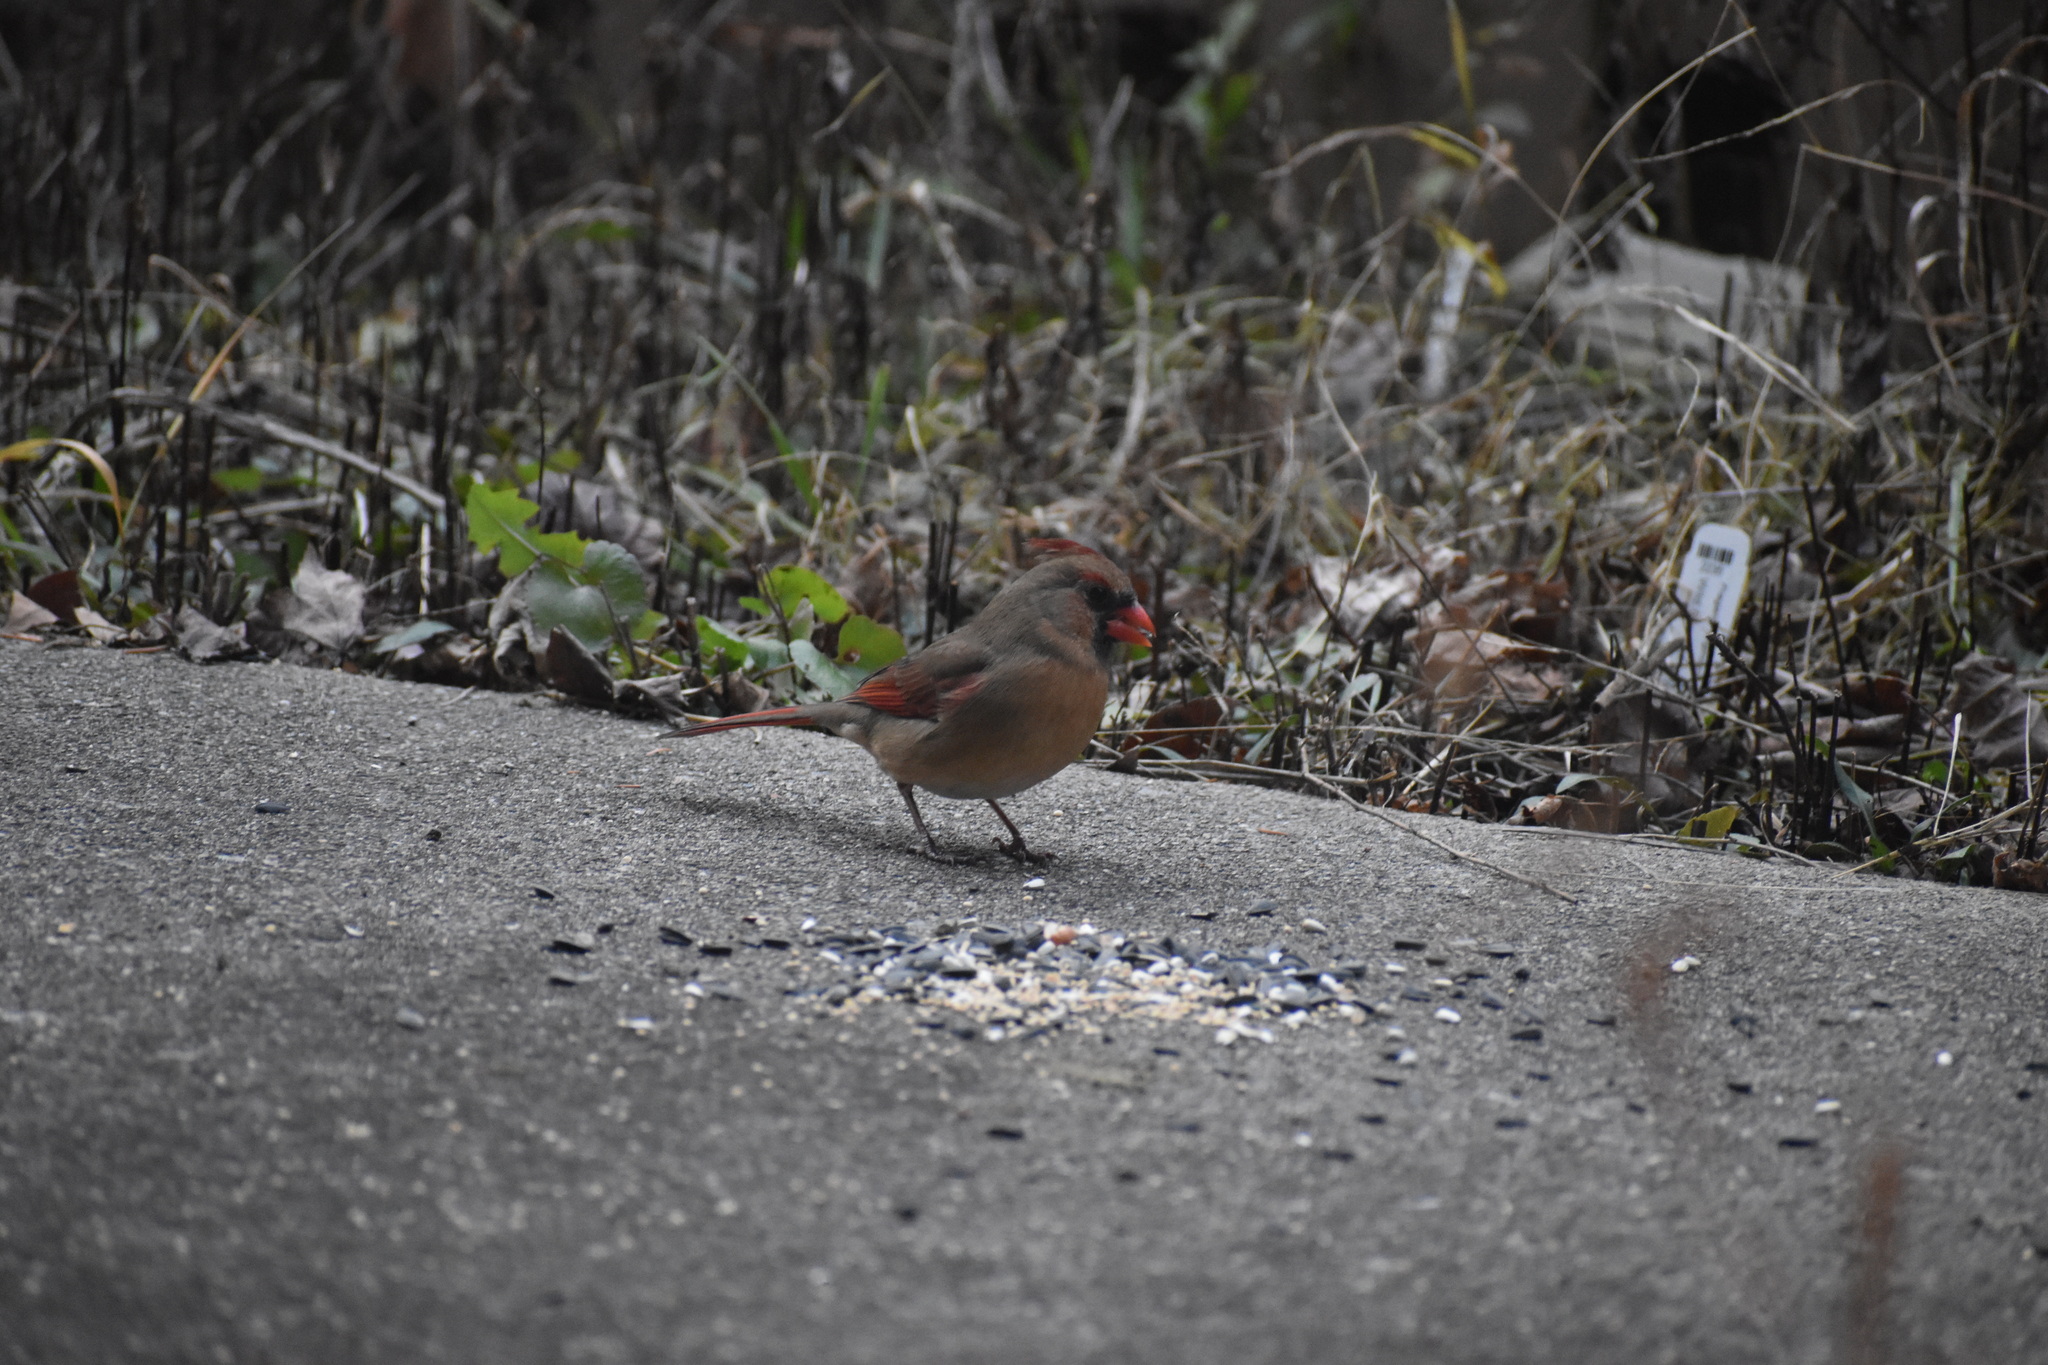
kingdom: Animalia
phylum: Chordata
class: Aves
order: Passeriformes
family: Cardinalidae
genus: Cardinalis
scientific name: Cardinalis cardinalis
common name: Northern cardinal
